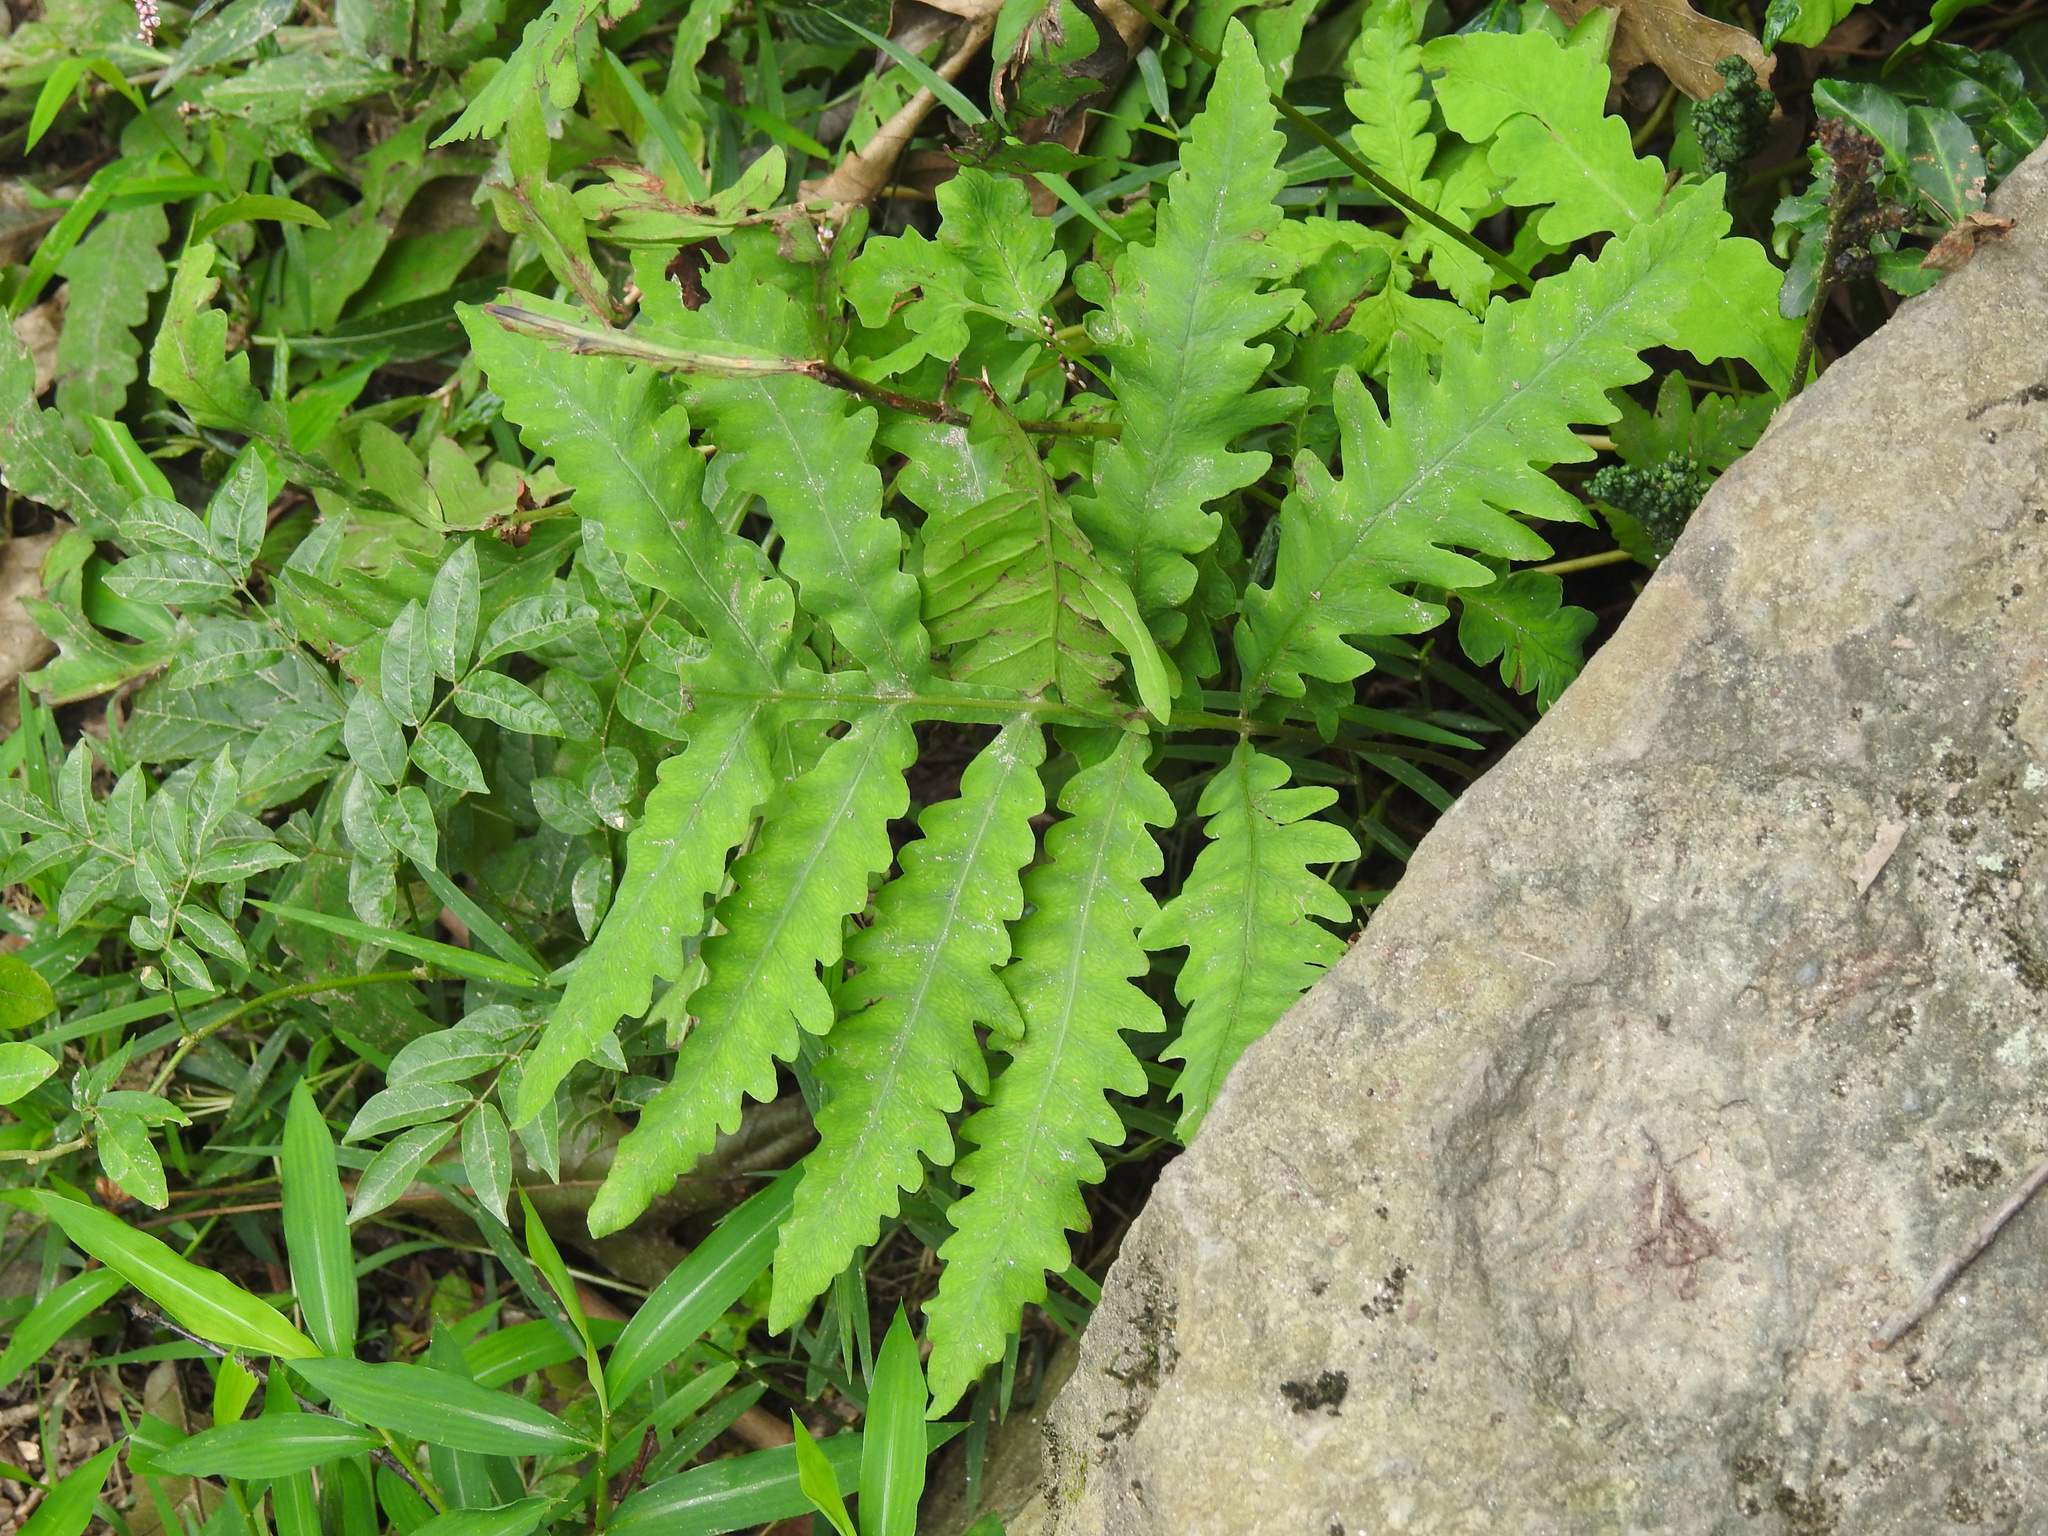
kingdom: Plantae
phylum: Tracheophyta
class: Polypodiopsida
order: Polypodiales
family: Onocleaceae
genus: Onoclea
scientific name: Onoclea sensibilis
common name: Sensitive fern
